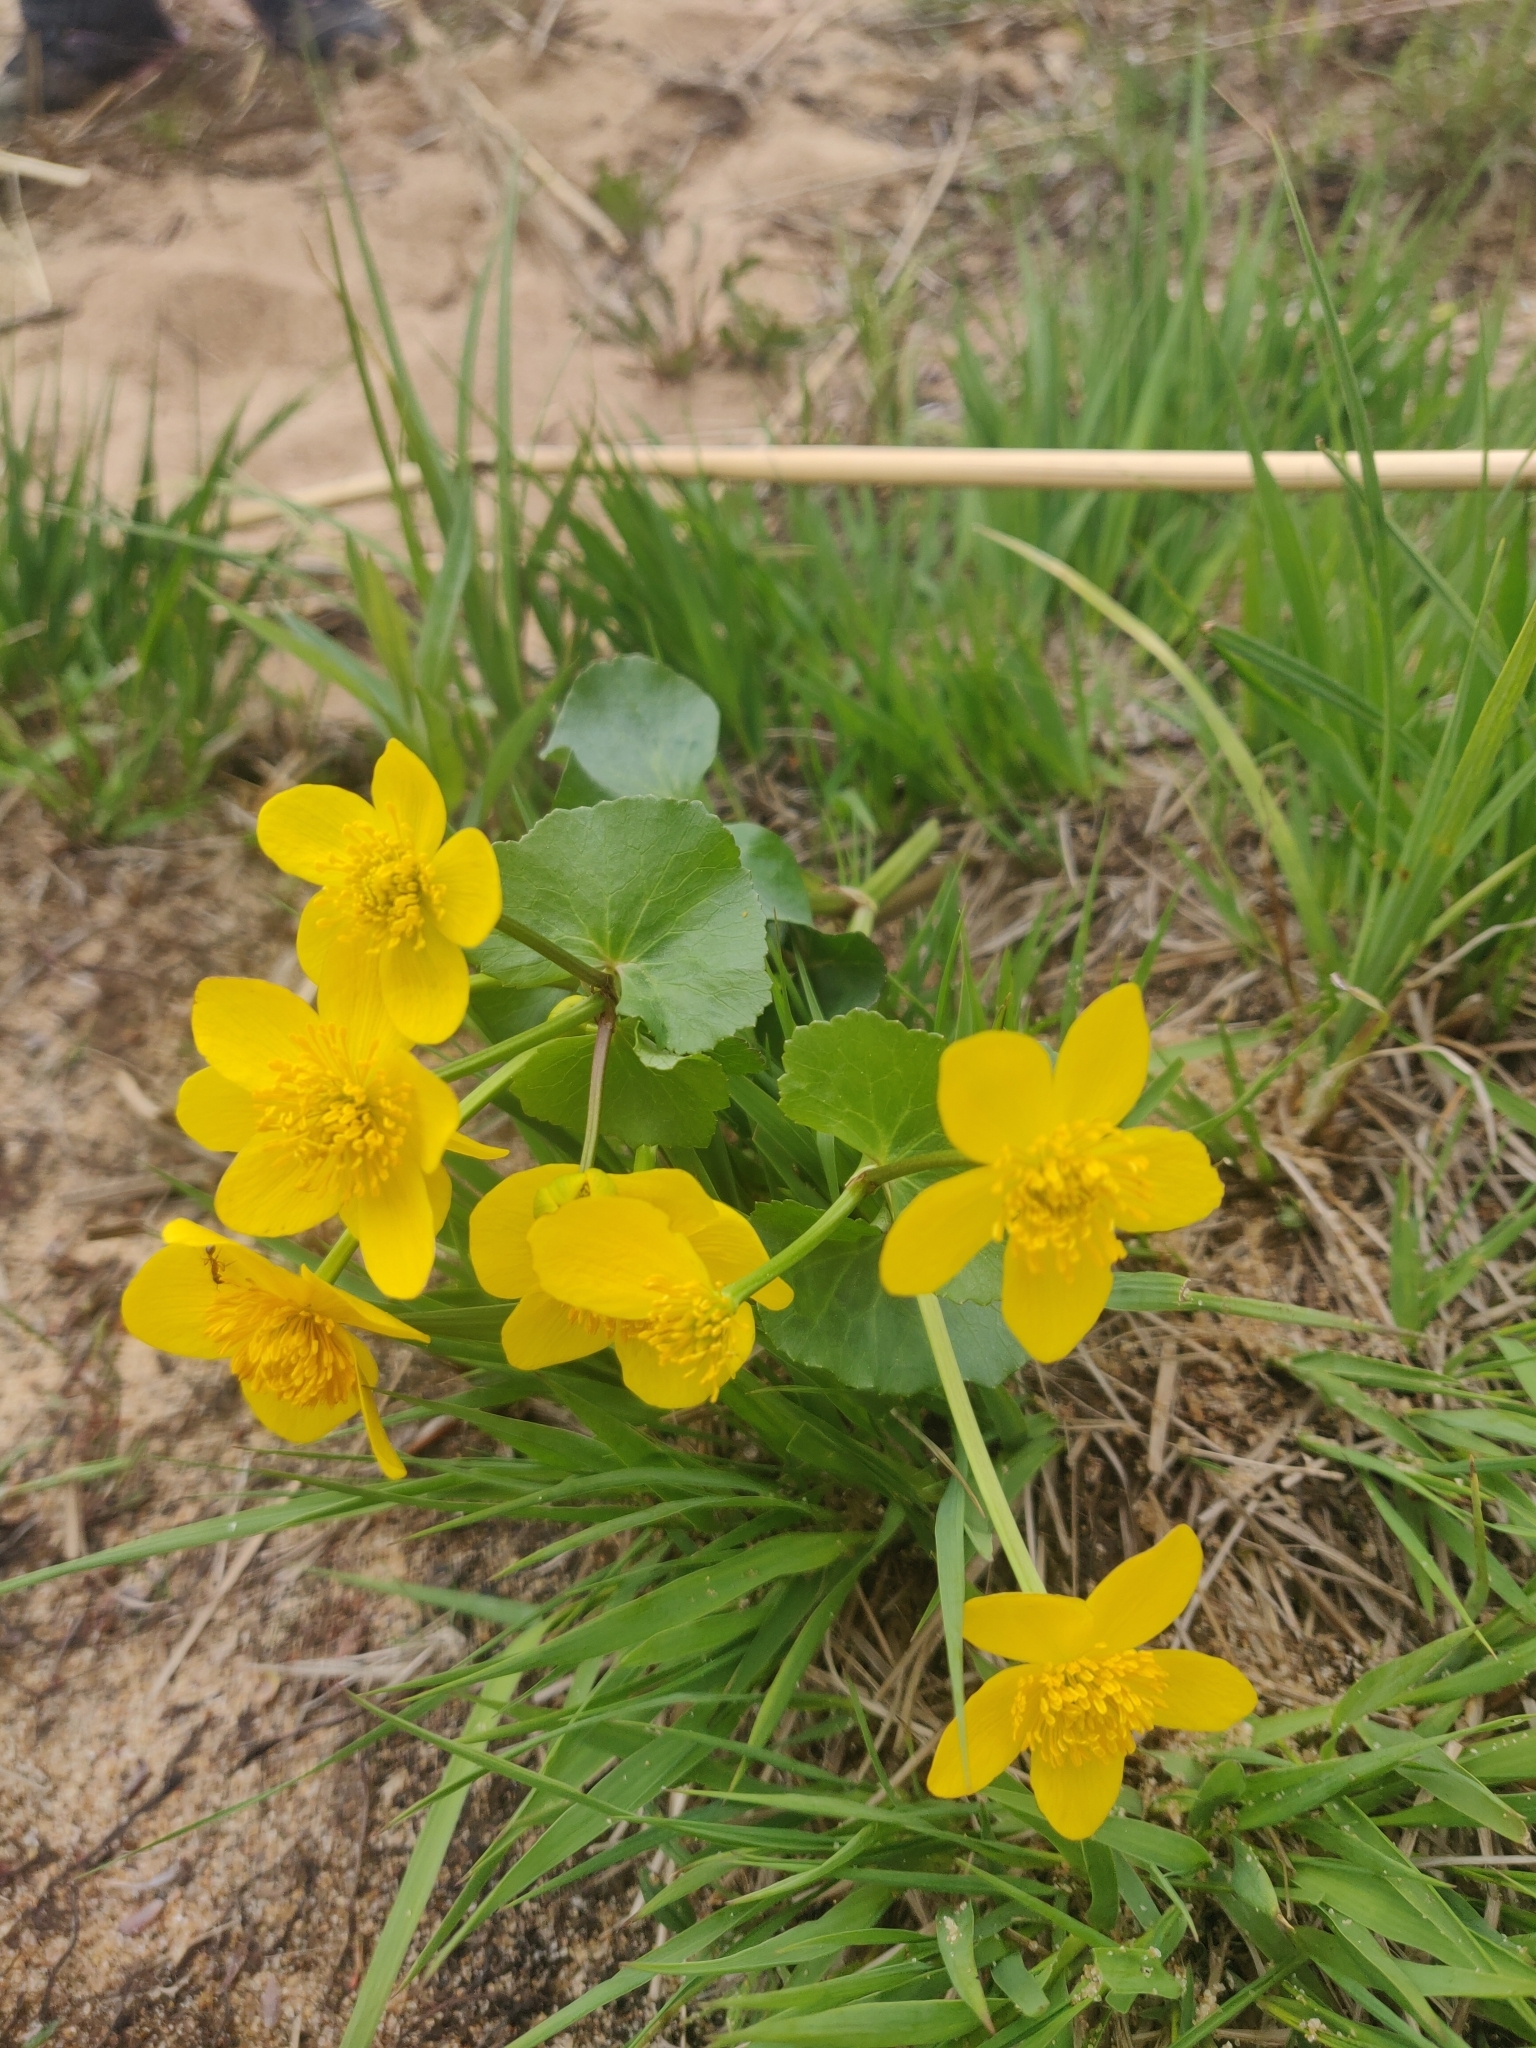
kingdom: Plantae
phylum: Tracheophyta
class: Magnoliopsida
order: Ranunculales
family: Ranunculaceae
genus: Caltha
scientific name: Caltha palustris
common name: Marsh marigold
